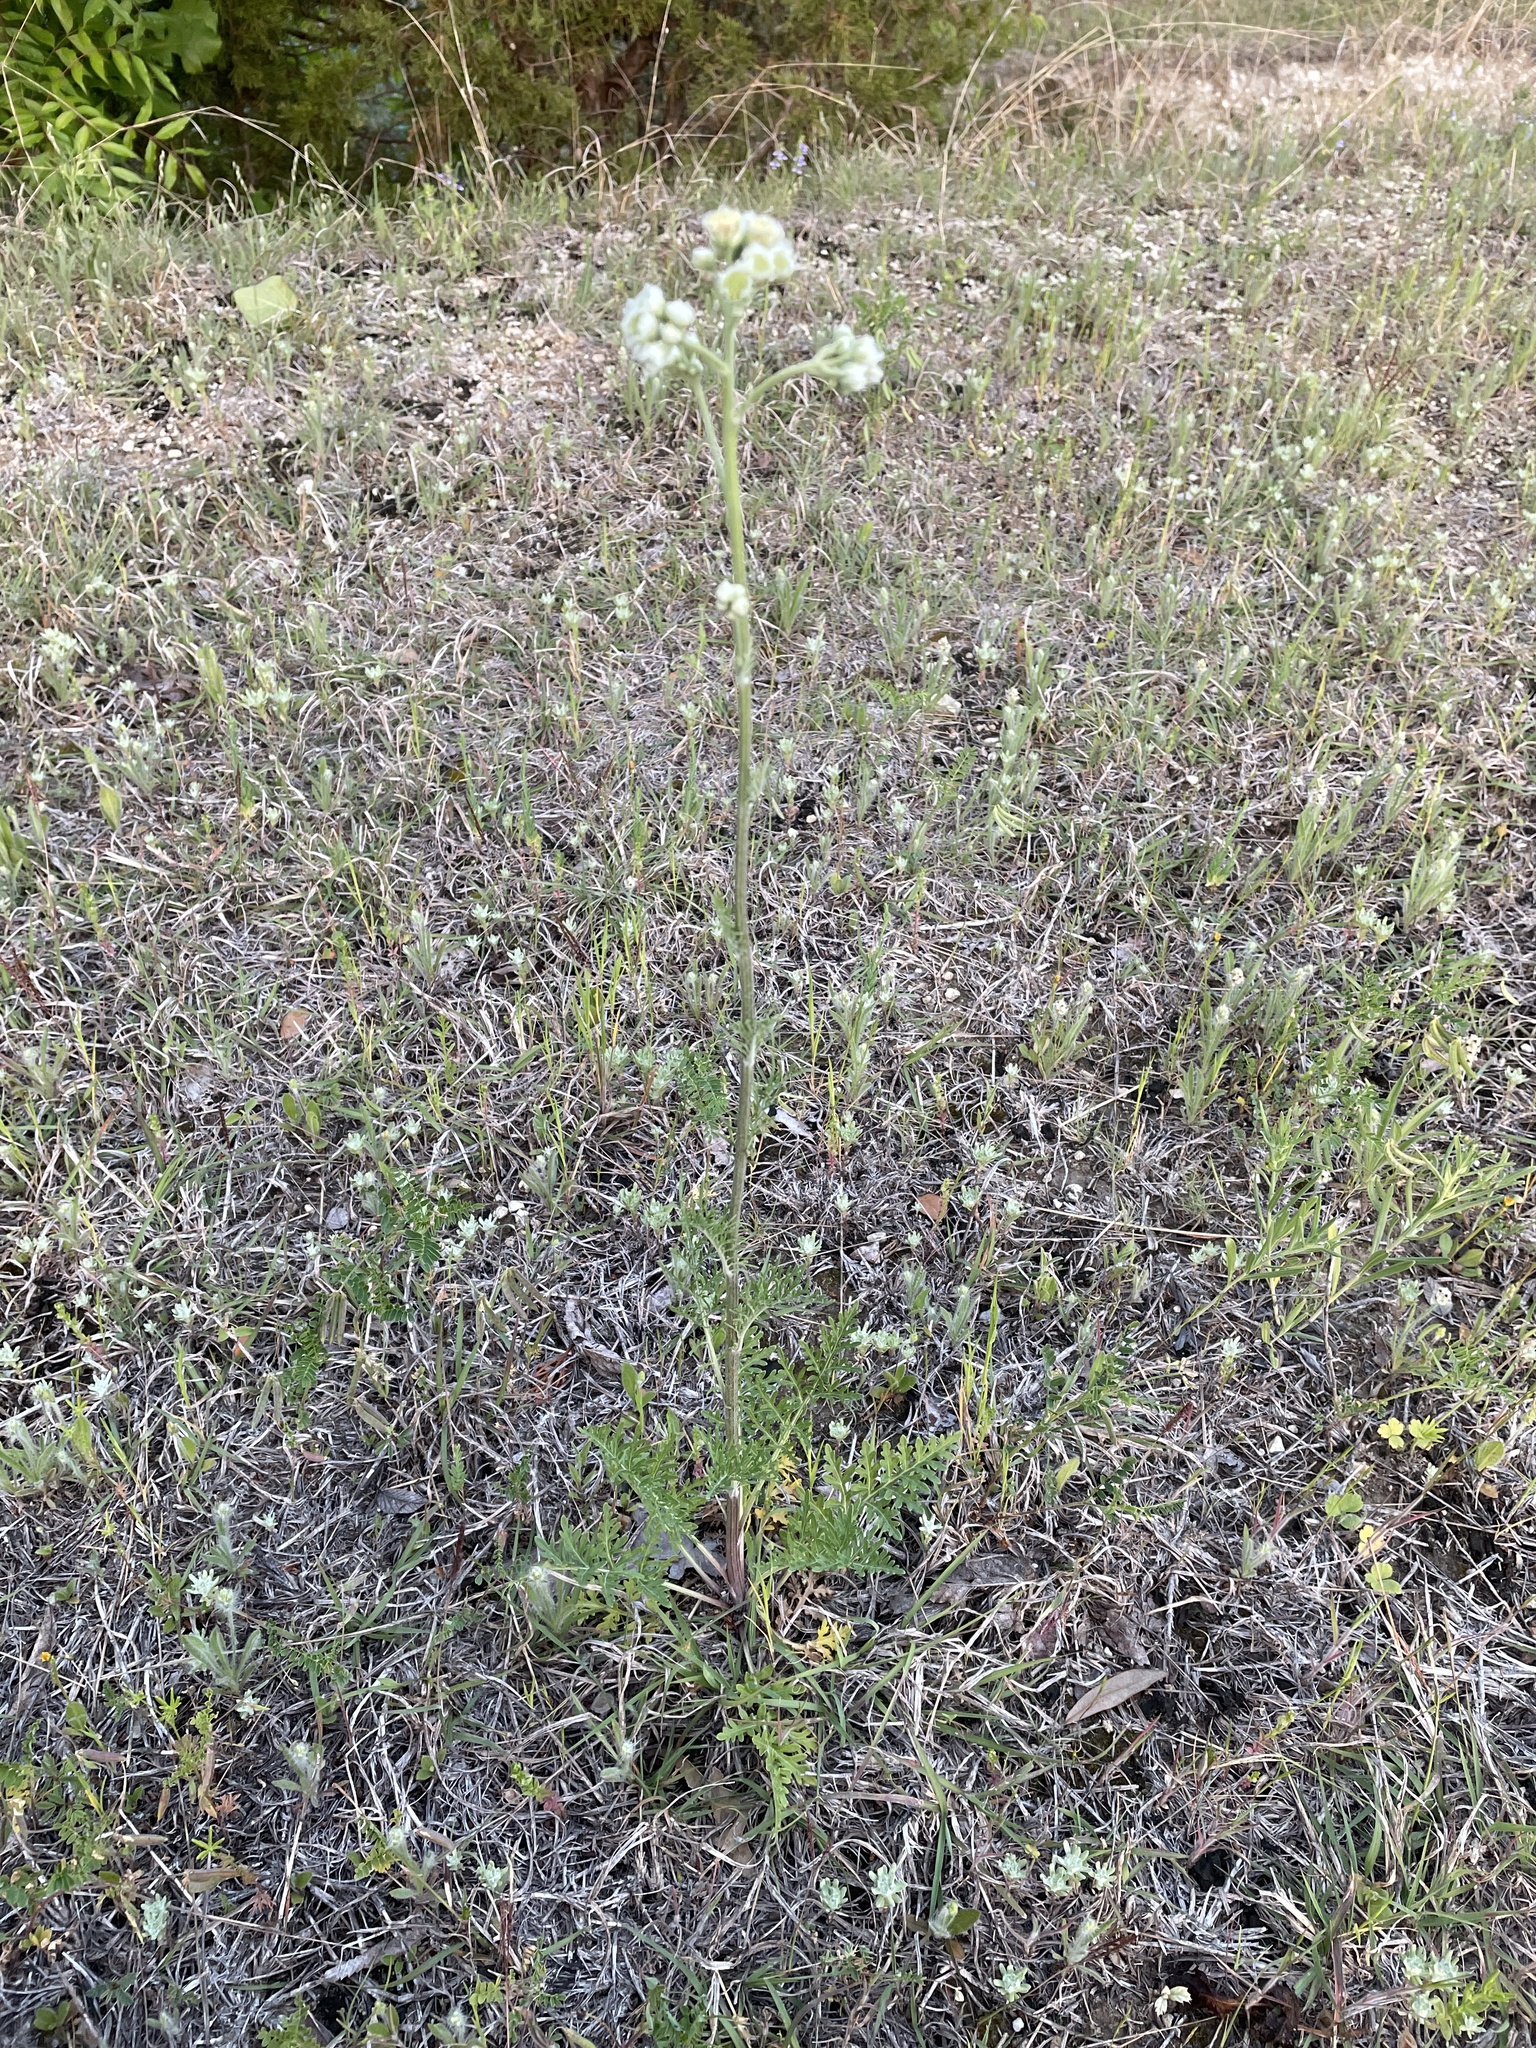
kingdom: Plantae
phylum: Tracheophyta
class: Magnoliopsida
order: Asterales
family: Asteraceae
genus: Hymenopappus
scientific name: Hymenopappus scabiosaeus
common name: Carolina woollywhite
